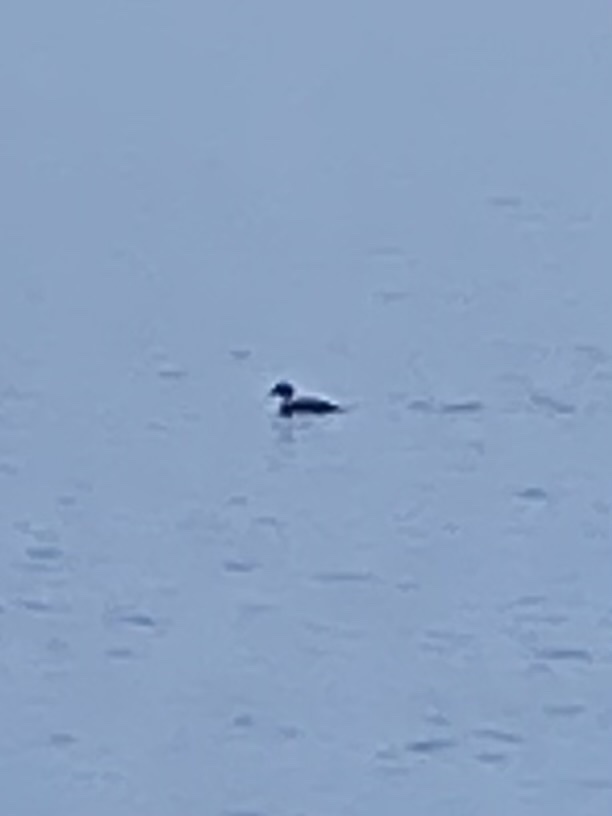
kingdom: Animalia
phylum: Chordata
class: Aves
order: Anseriformes
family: Anatidae
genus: Bucephala
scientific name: Bucephala clangula
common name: Common goldeneye
